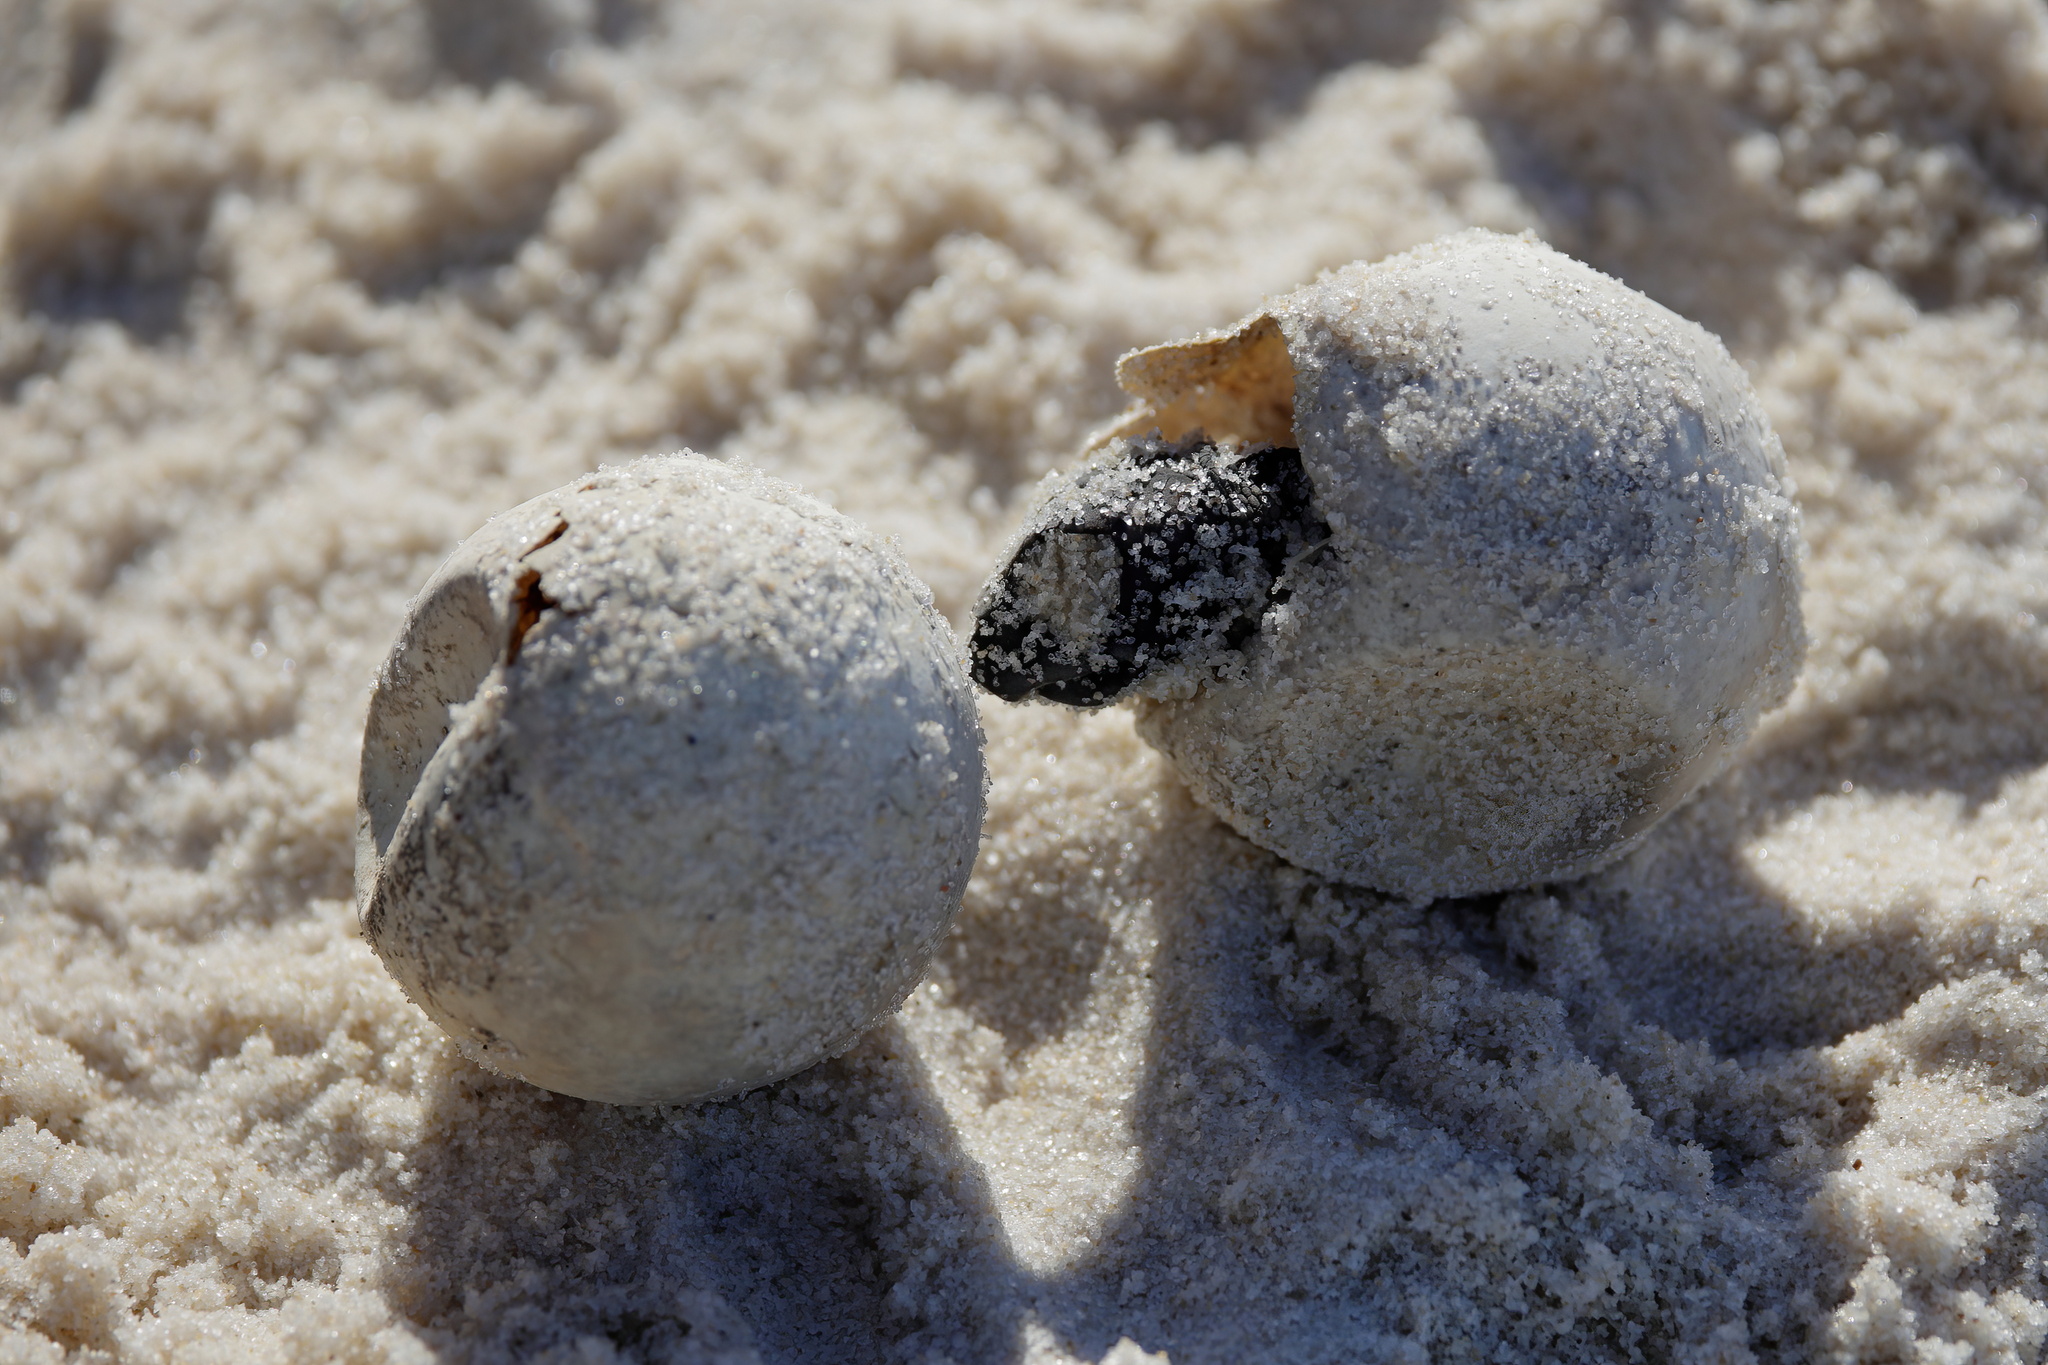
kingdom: Animalia
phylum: Chordata
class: Testudines
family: Cheloniidae
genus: Caretta
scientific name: Caretta caretta
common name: Loggerhead sea turtle
